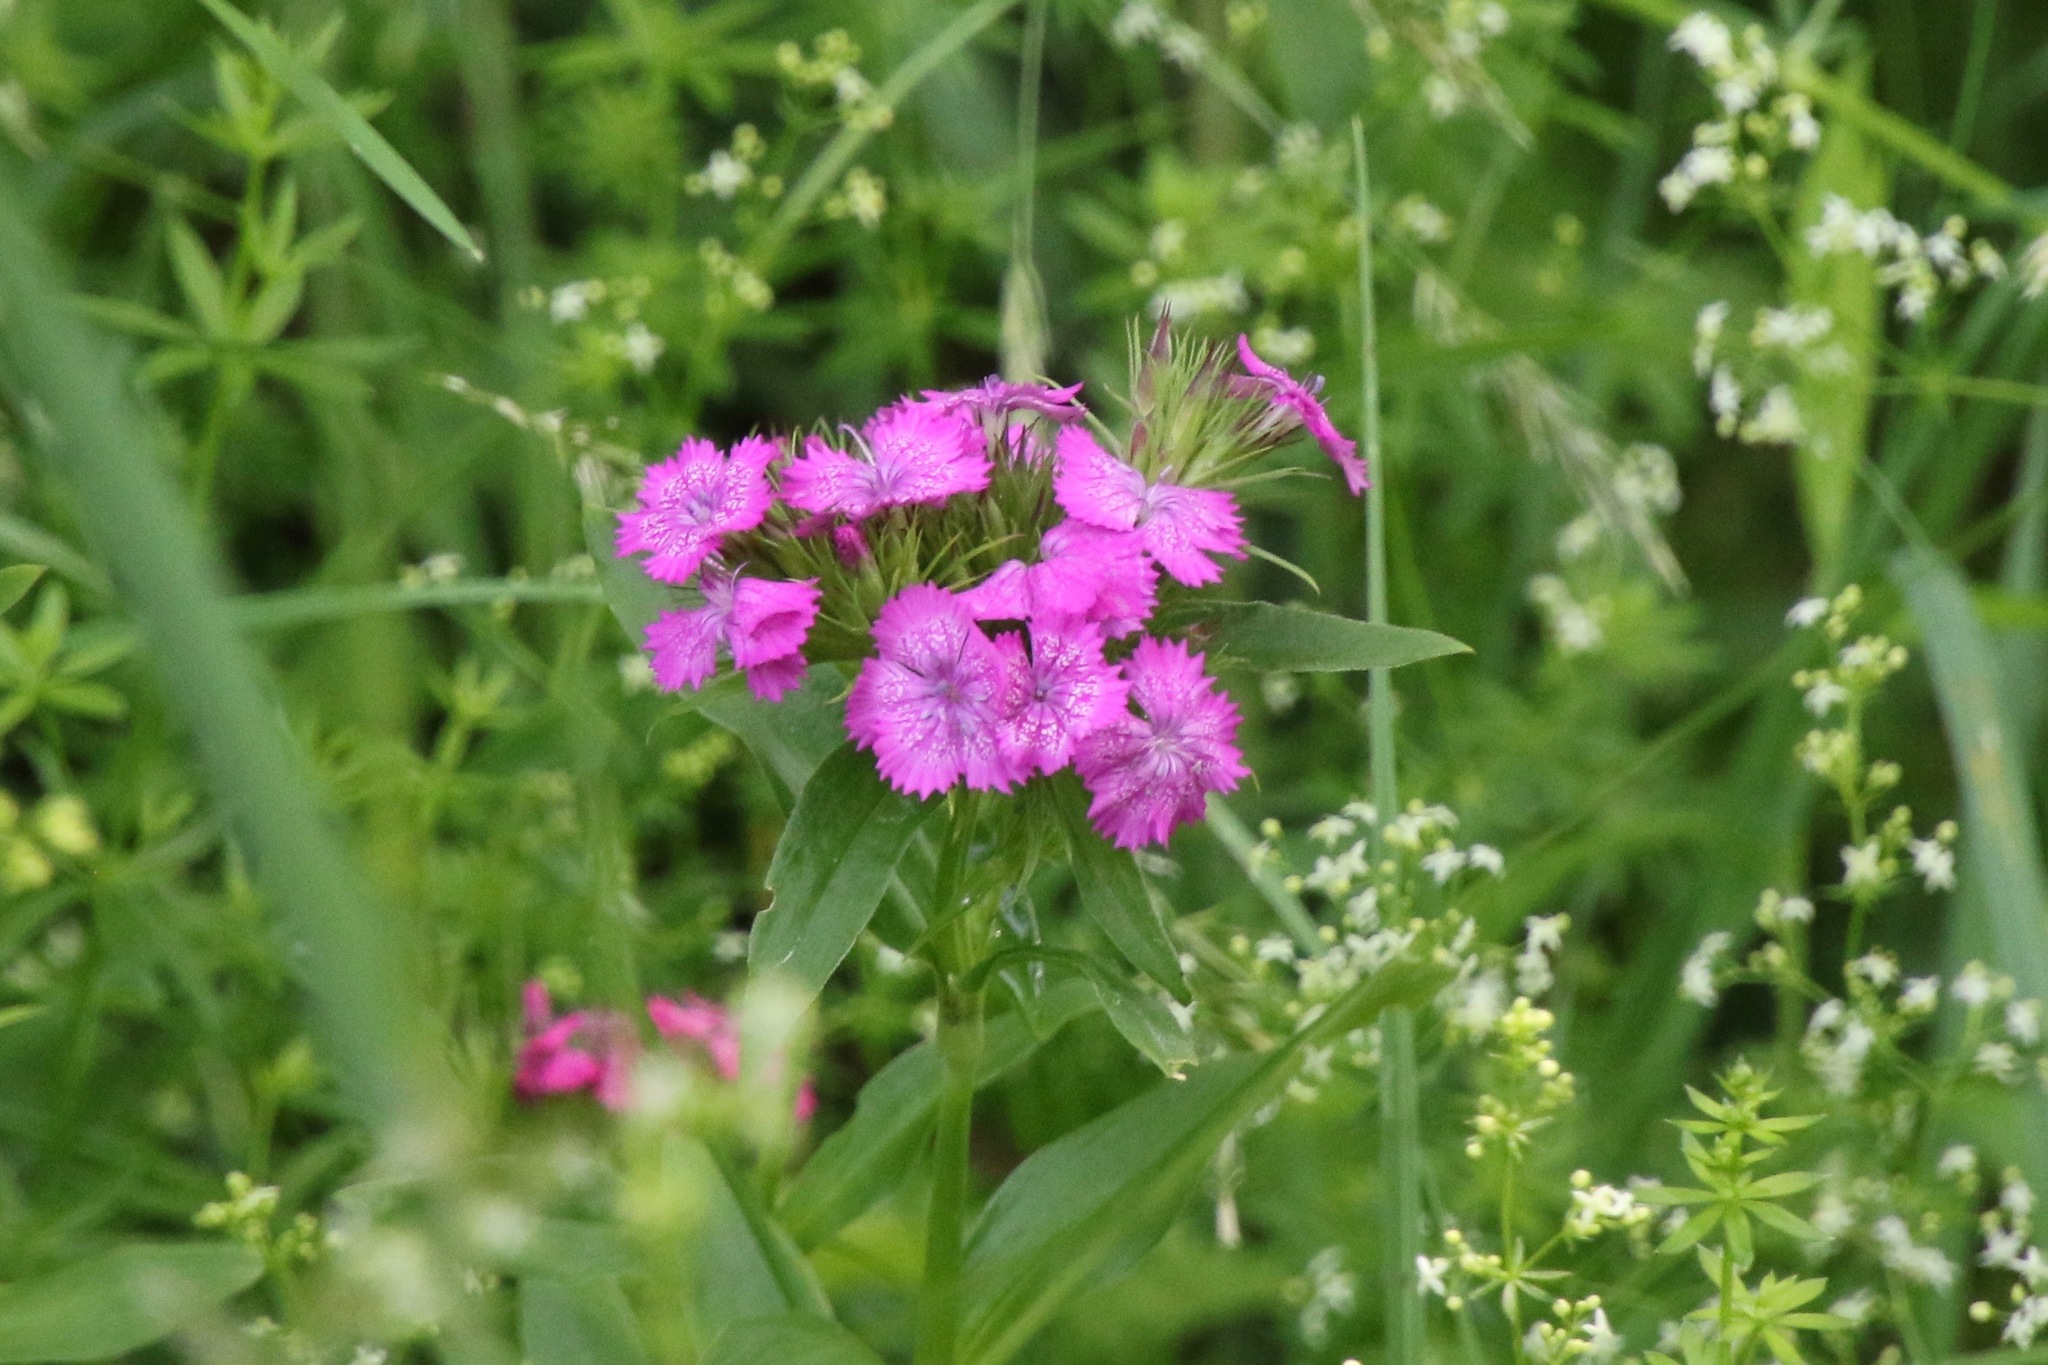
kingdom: Plantae
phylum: Tracheophyta
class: Magnoliopsida
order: Caryophyllales
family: Caryophyllaceae
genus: Dianthus
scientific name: Dianthus barbatus
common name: Sweet-william
